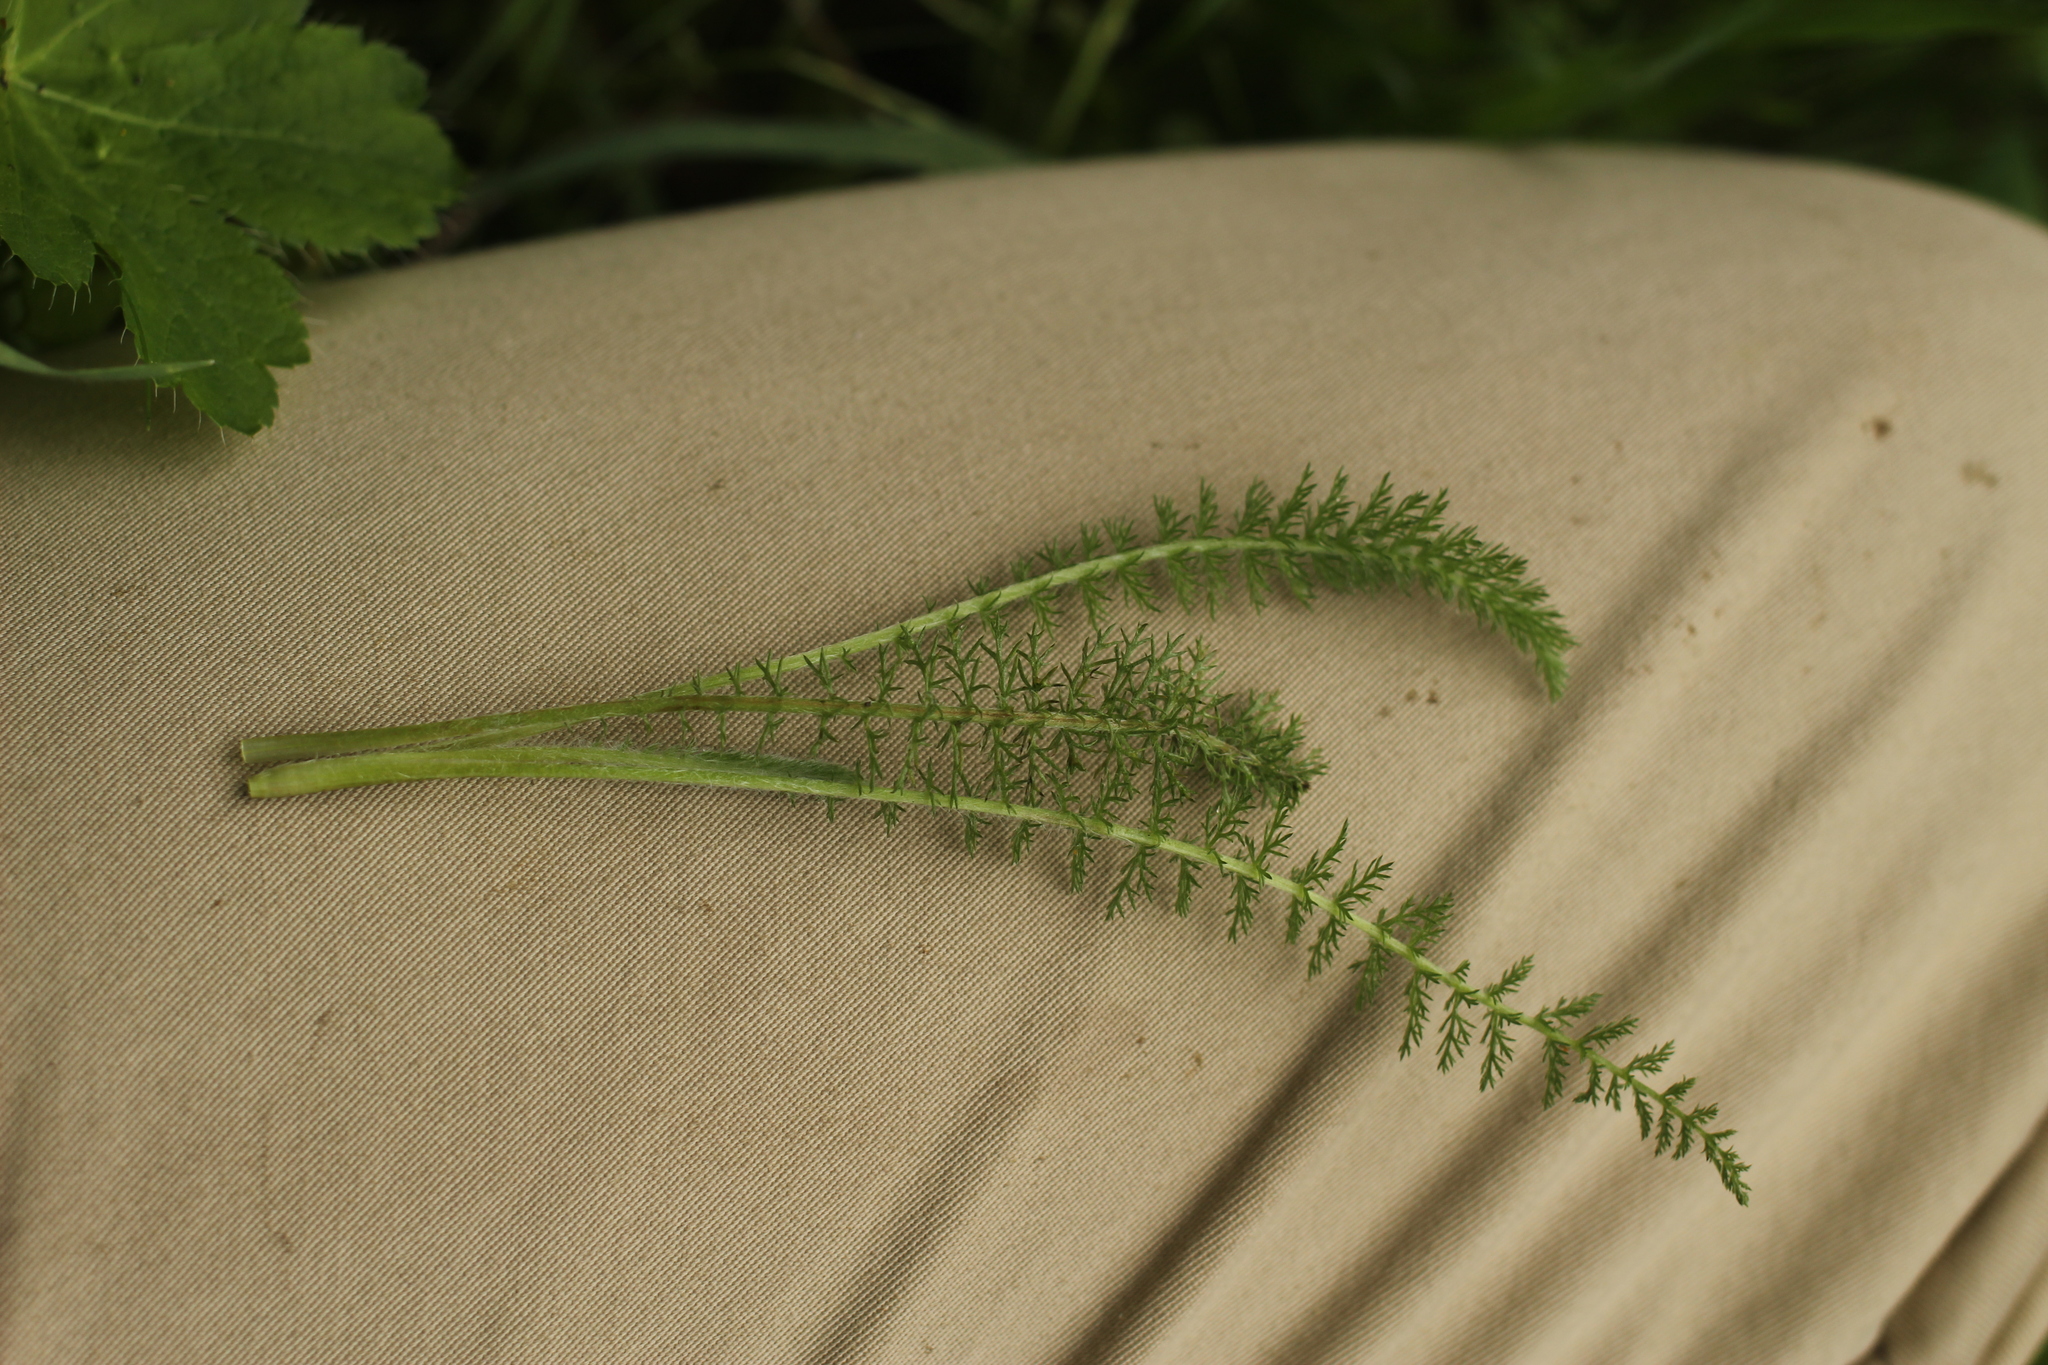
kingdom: Plantae
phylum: Tracheophyta
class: Magnoliopsida
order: Asterales
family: Asteraceae
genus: Achillea
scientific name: Achillea millefolium
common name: Yarrow
